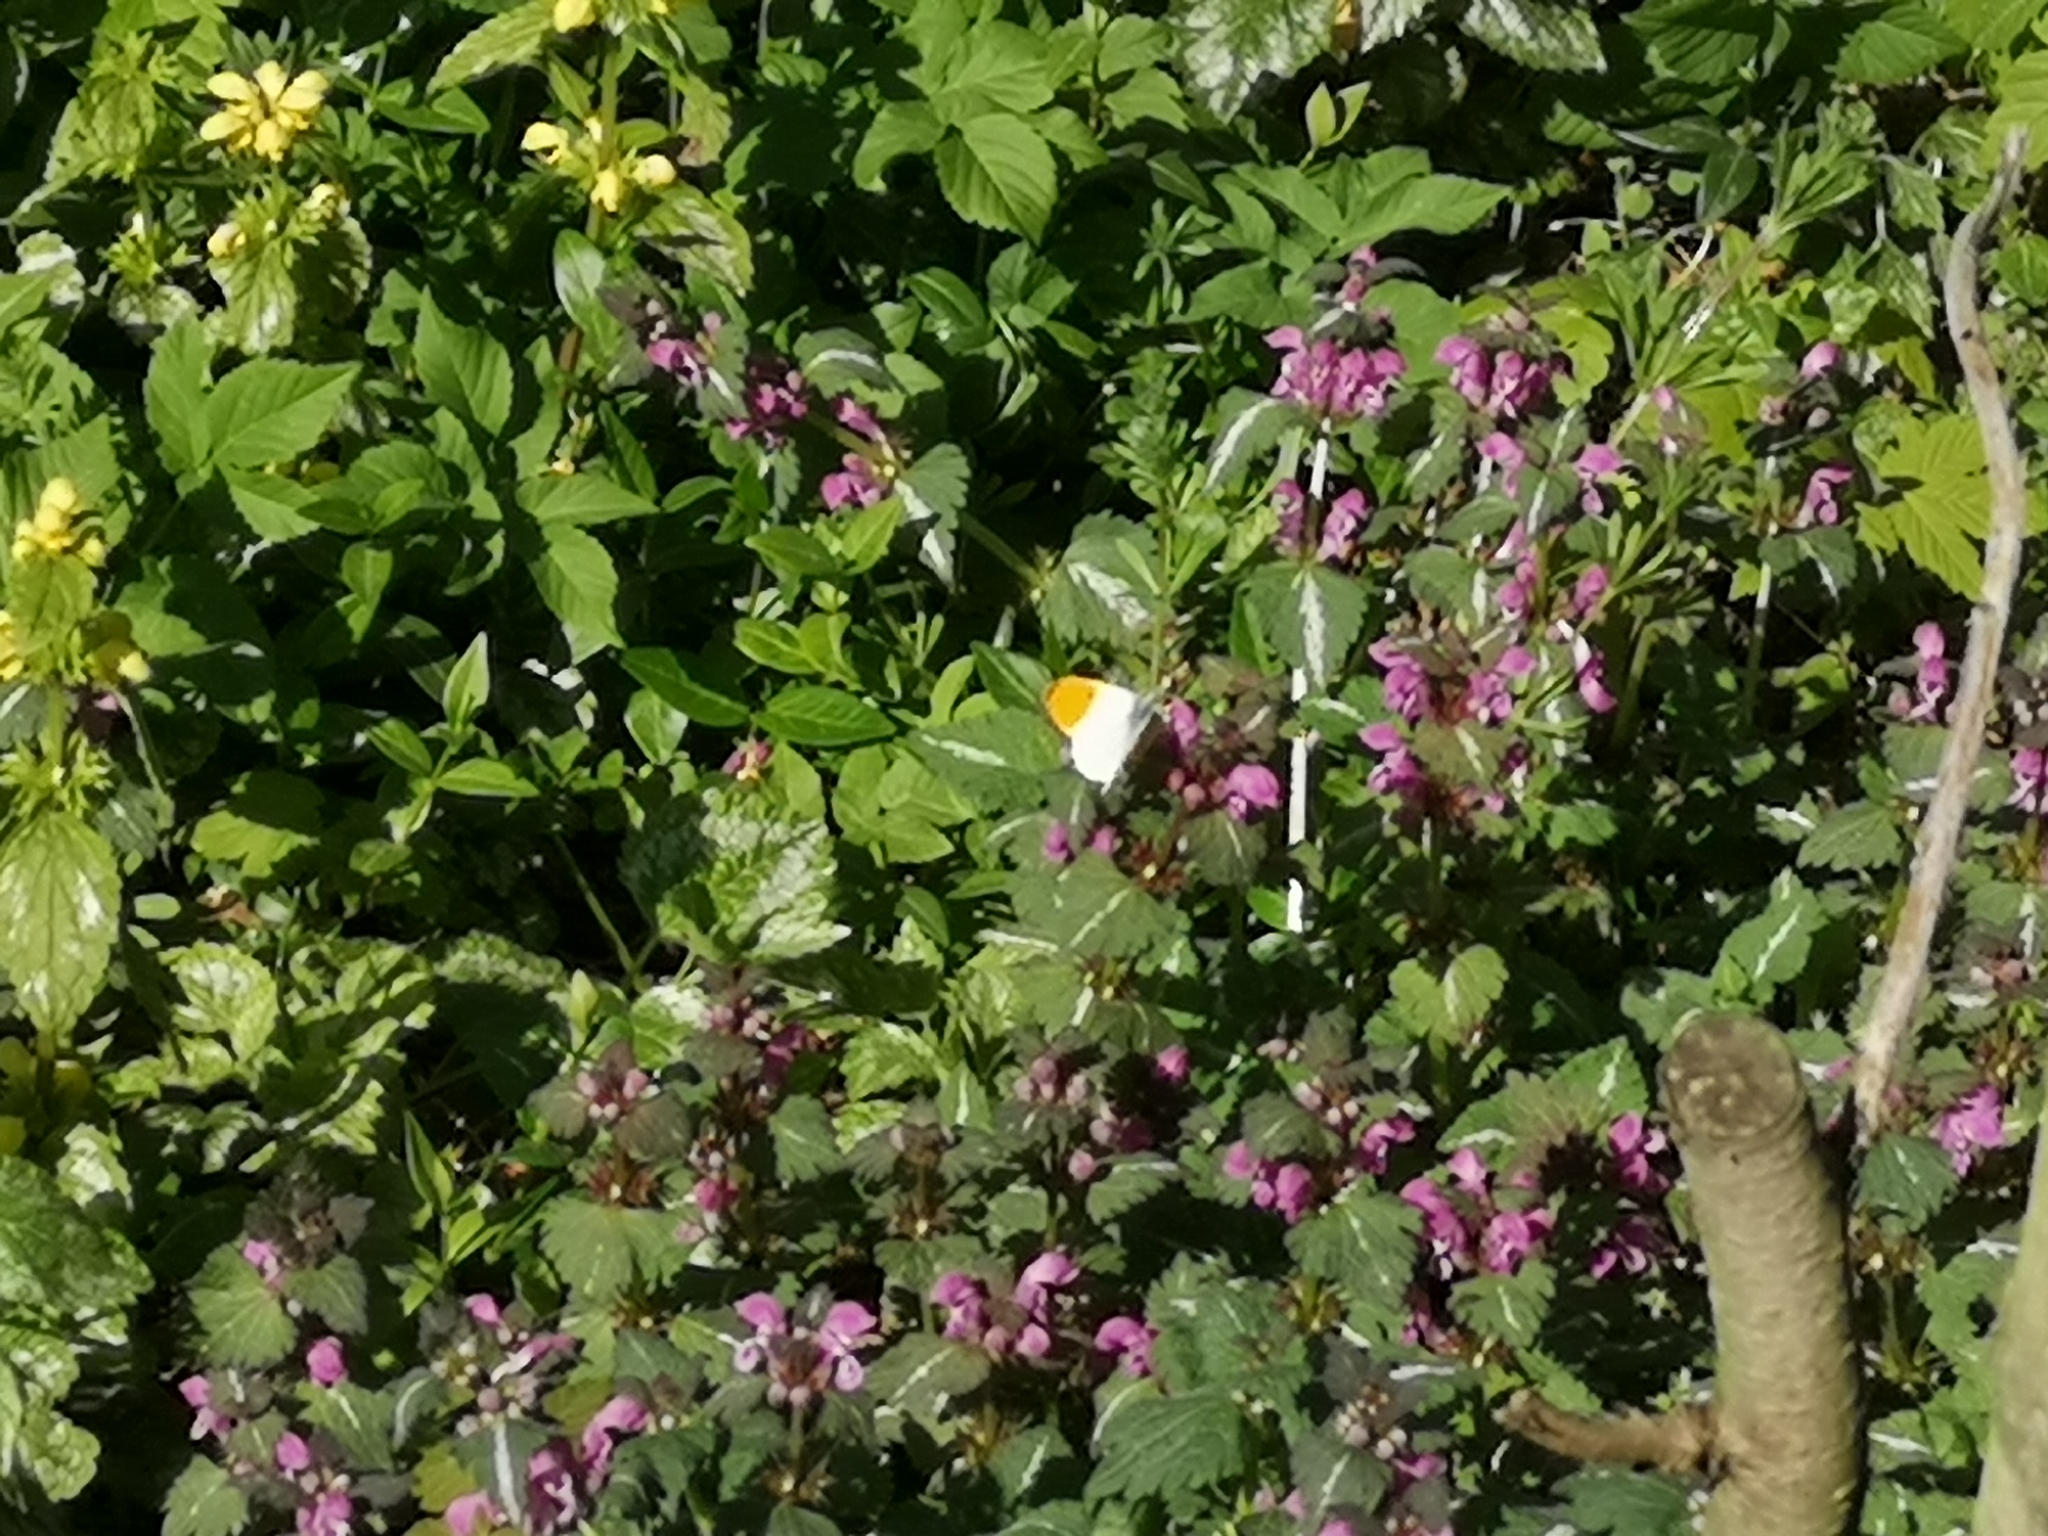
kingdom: Animalia
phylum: Arthropoda
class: Insecta
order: Lepidoptera
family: Pieridae
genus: Anthocharis
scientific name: Anthocharis cardamines
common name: Orange-tip
